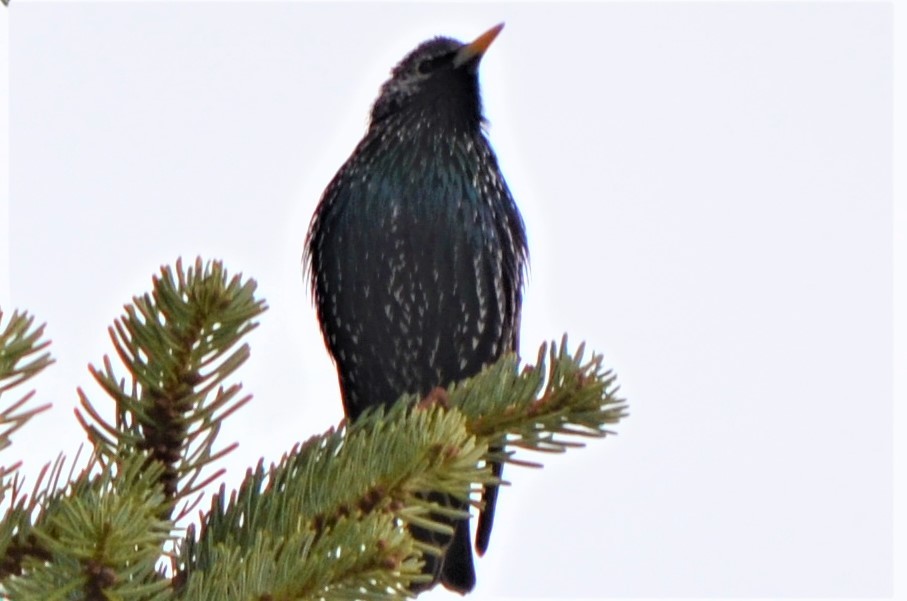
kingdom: Animalia
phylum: Chordata
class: Aves
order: Passeriformes
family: Sturnidae
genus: Sturnus
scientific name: Sturnus vulgaris
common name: Common starling
